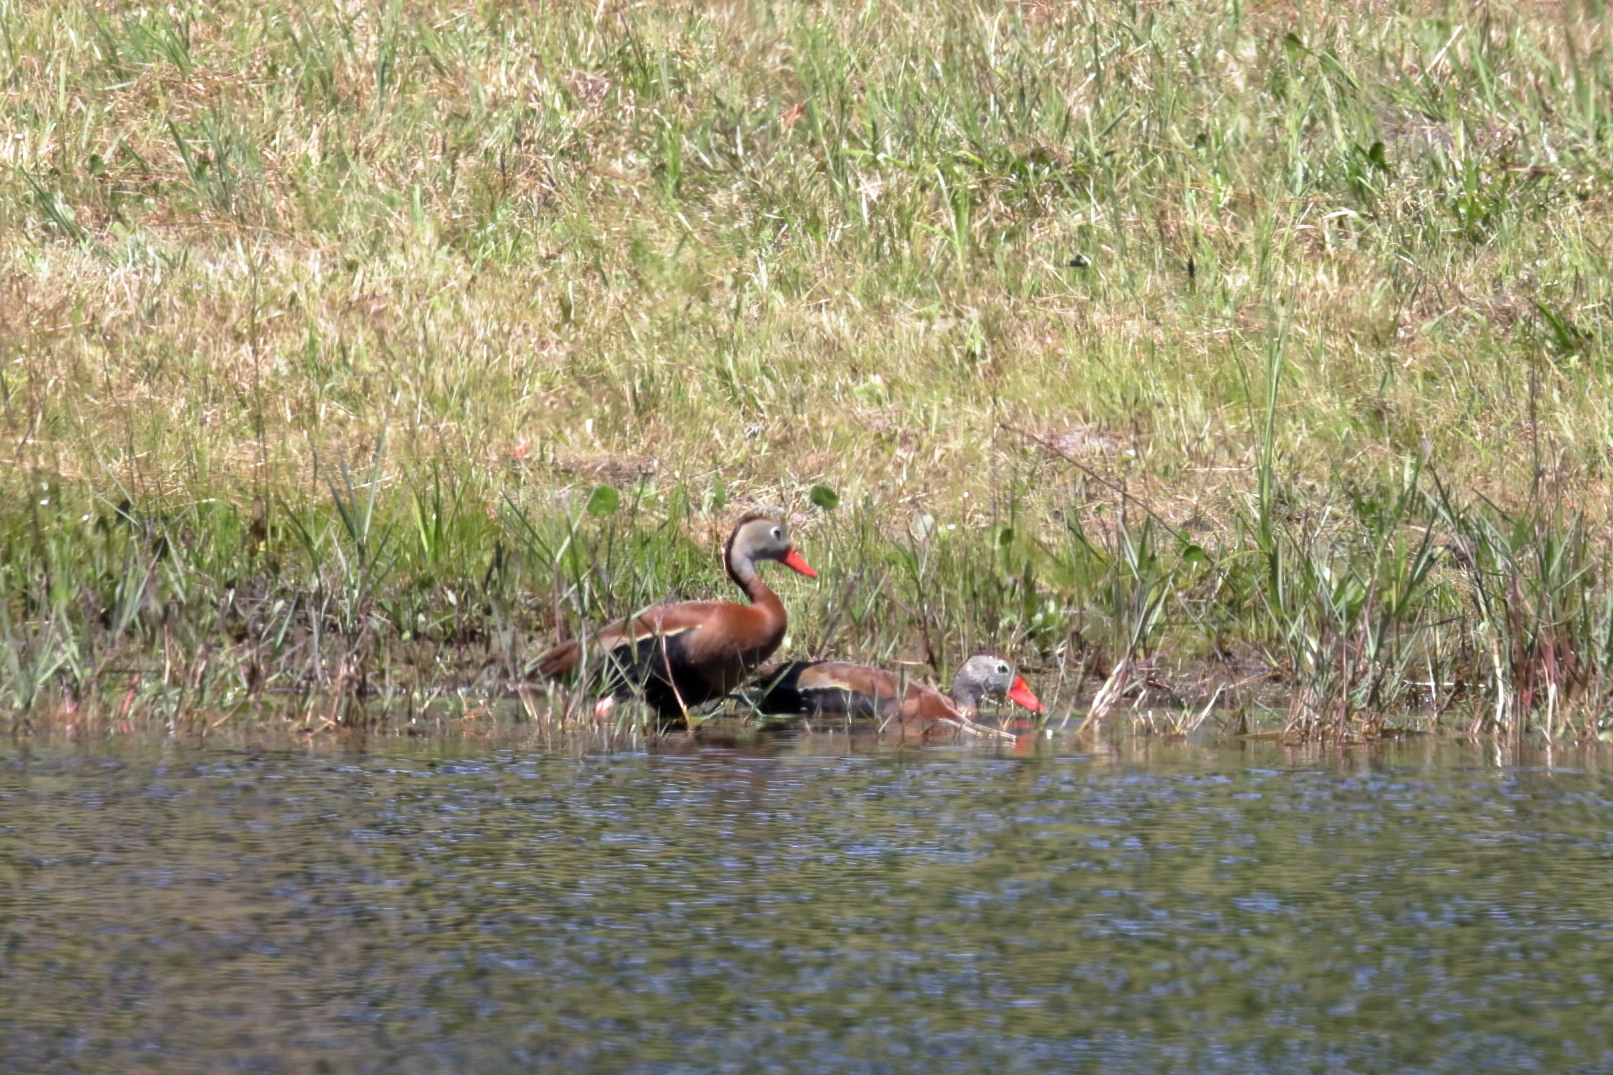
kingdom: Animalia
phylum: Chordata
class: Aves
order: Anseriformes
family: Anatidae
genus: Dendrocygna
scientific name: Dendrocygna autumnalis
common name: Black-bellied whistling duck
